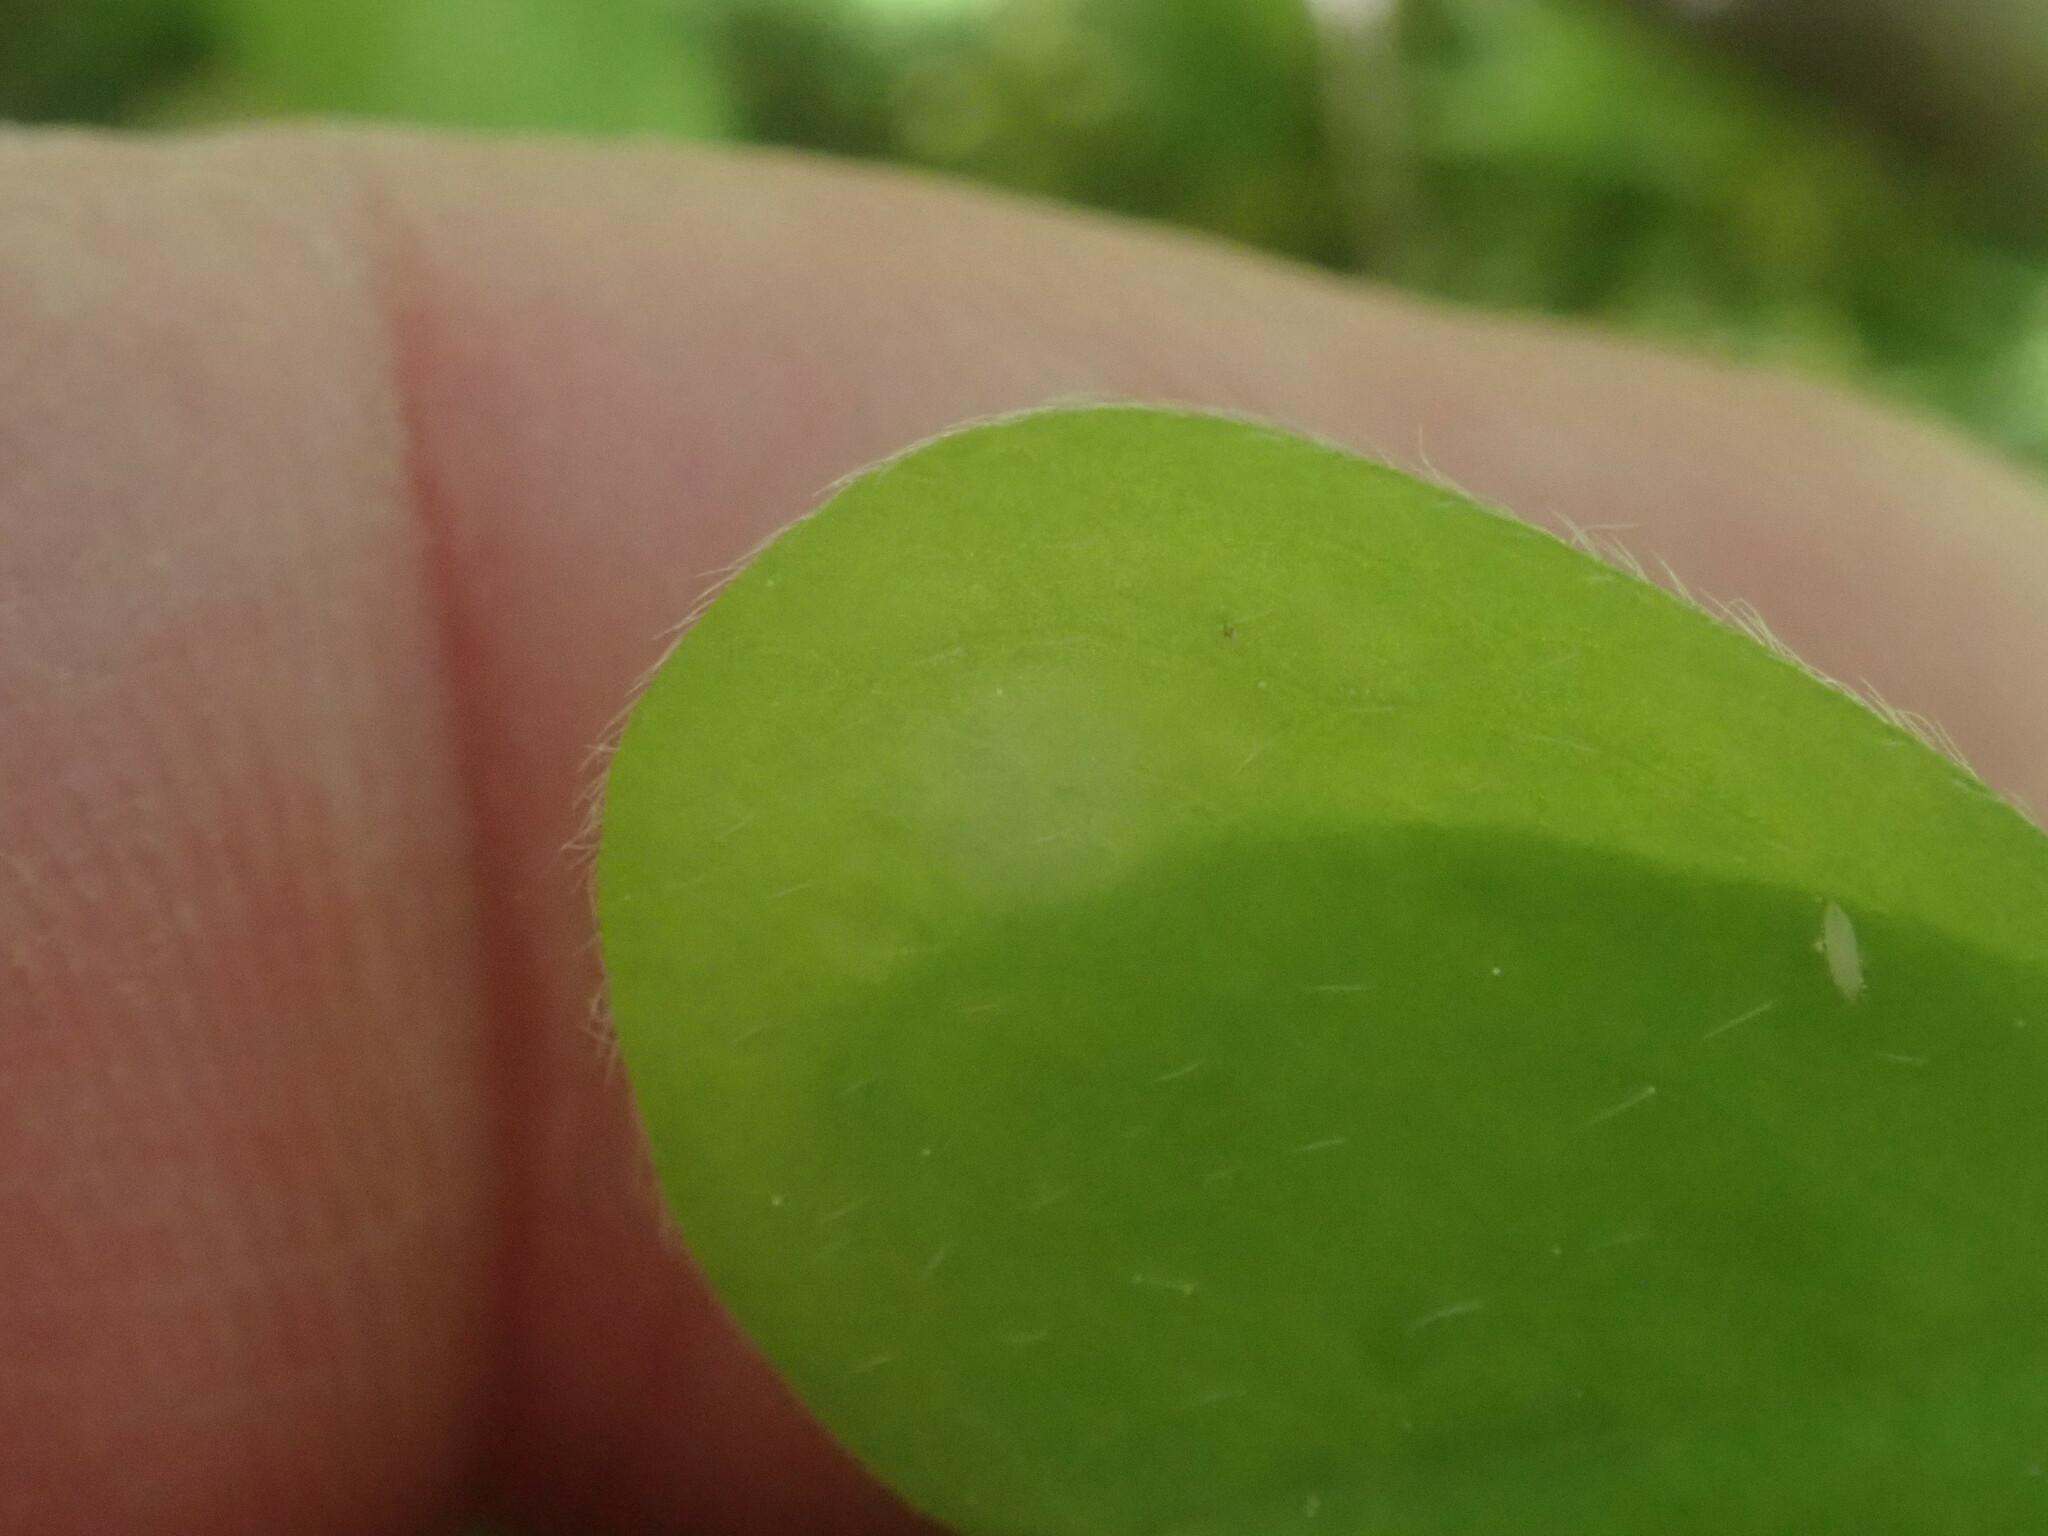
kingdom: Plantae
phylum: Tracheophyta
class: Magnoliopsida
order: Oxalidales
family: Oxalidaceae
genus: Oxalis
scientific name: Oxalis montana
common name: American wood-sorrel
